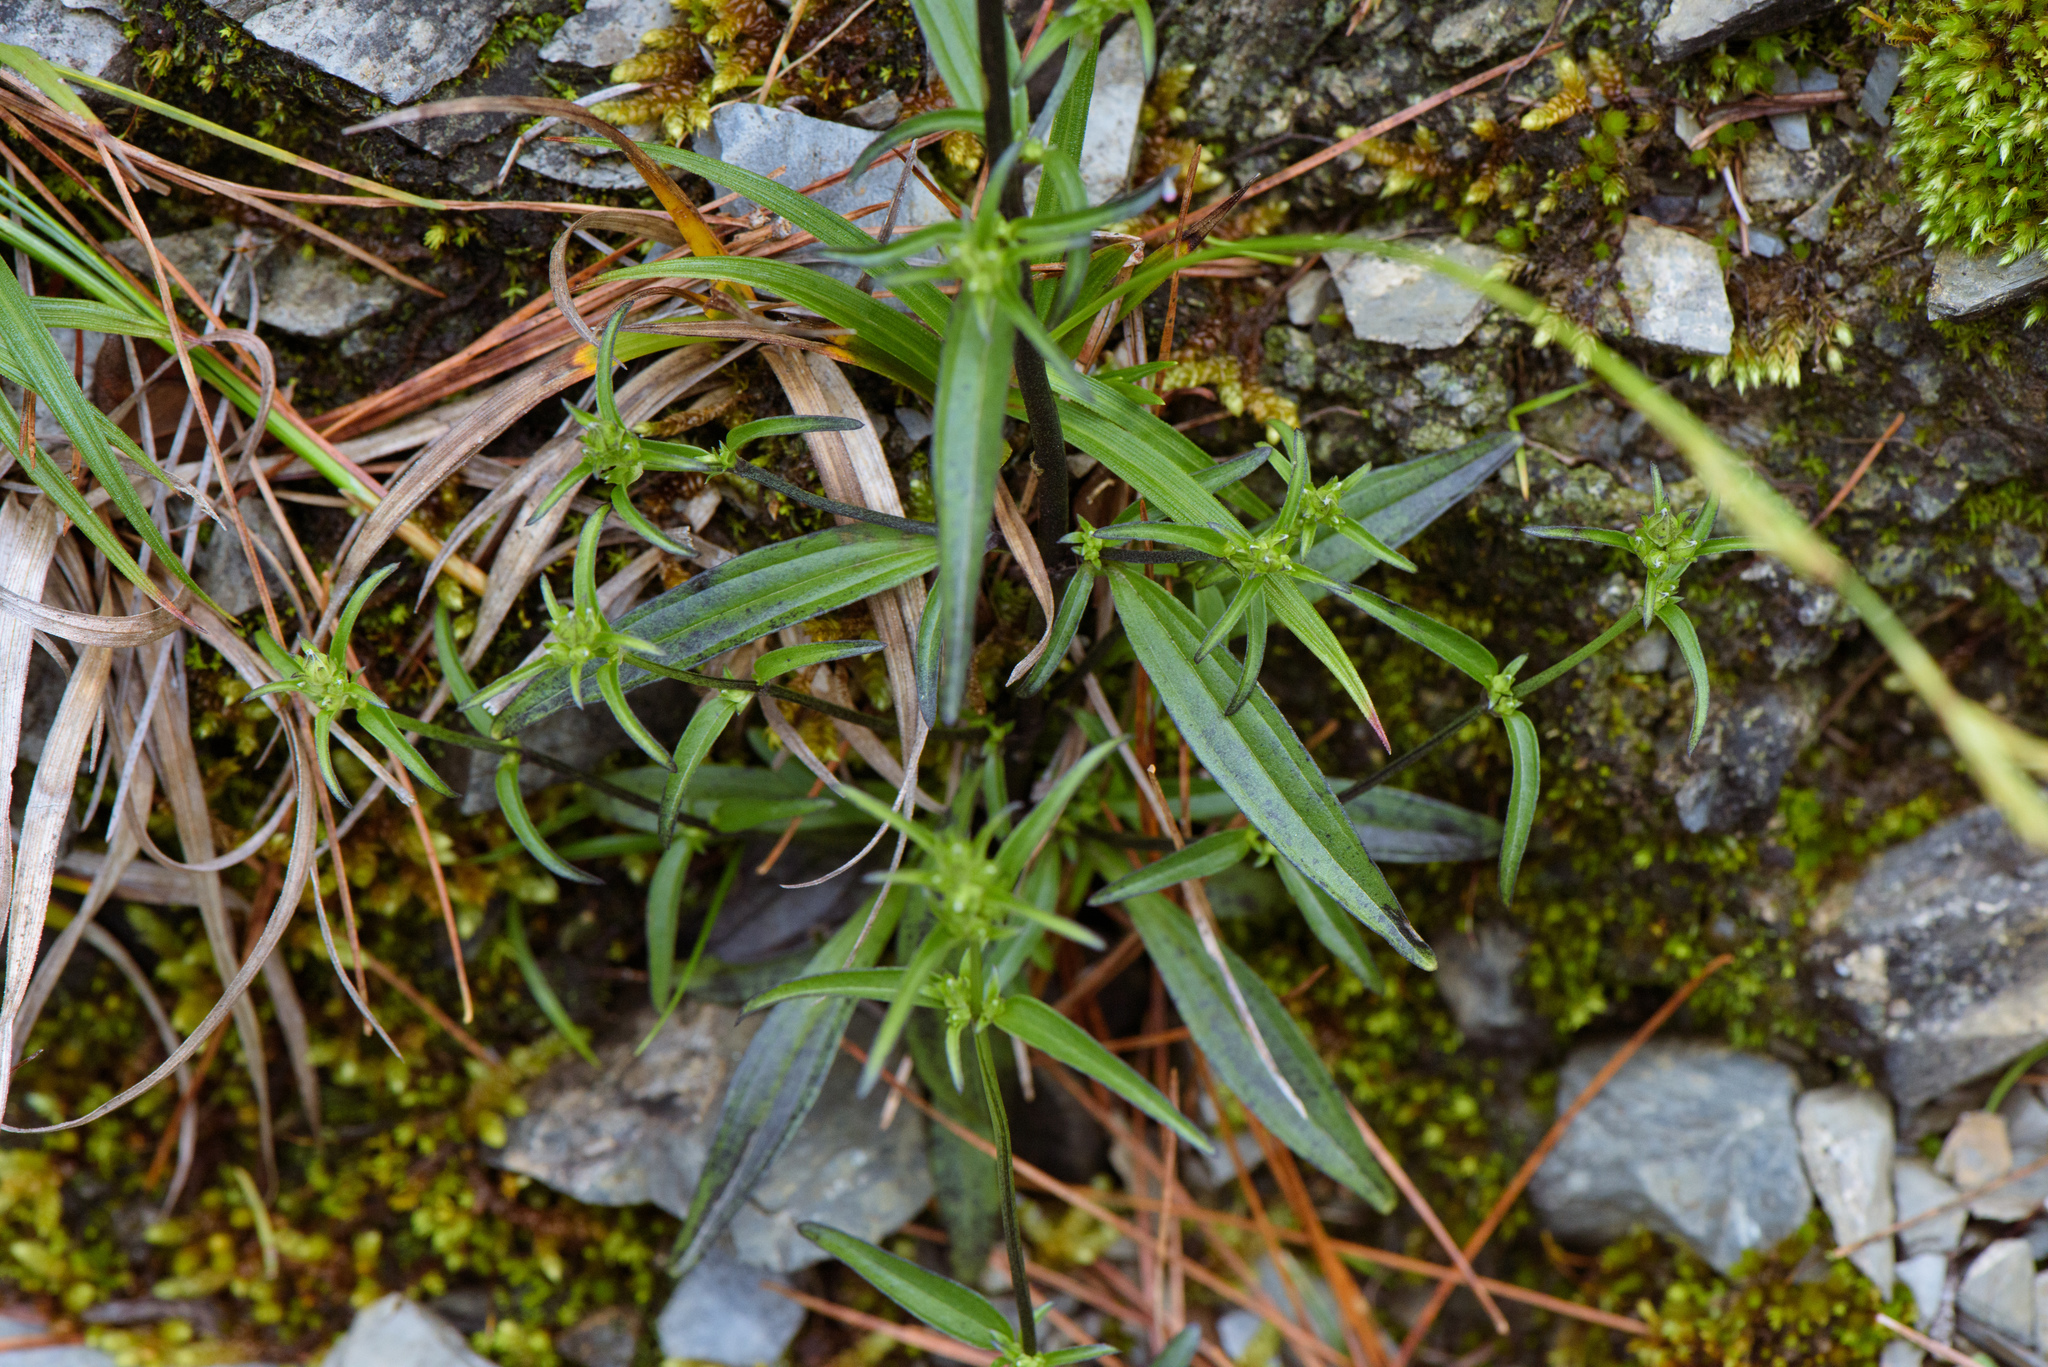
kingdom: Plantae
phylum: Tracheophyta
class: Magnoliopsida
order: Gentianales
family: Gentianaceae
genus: Swertia
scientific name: Swertia tozanensis
